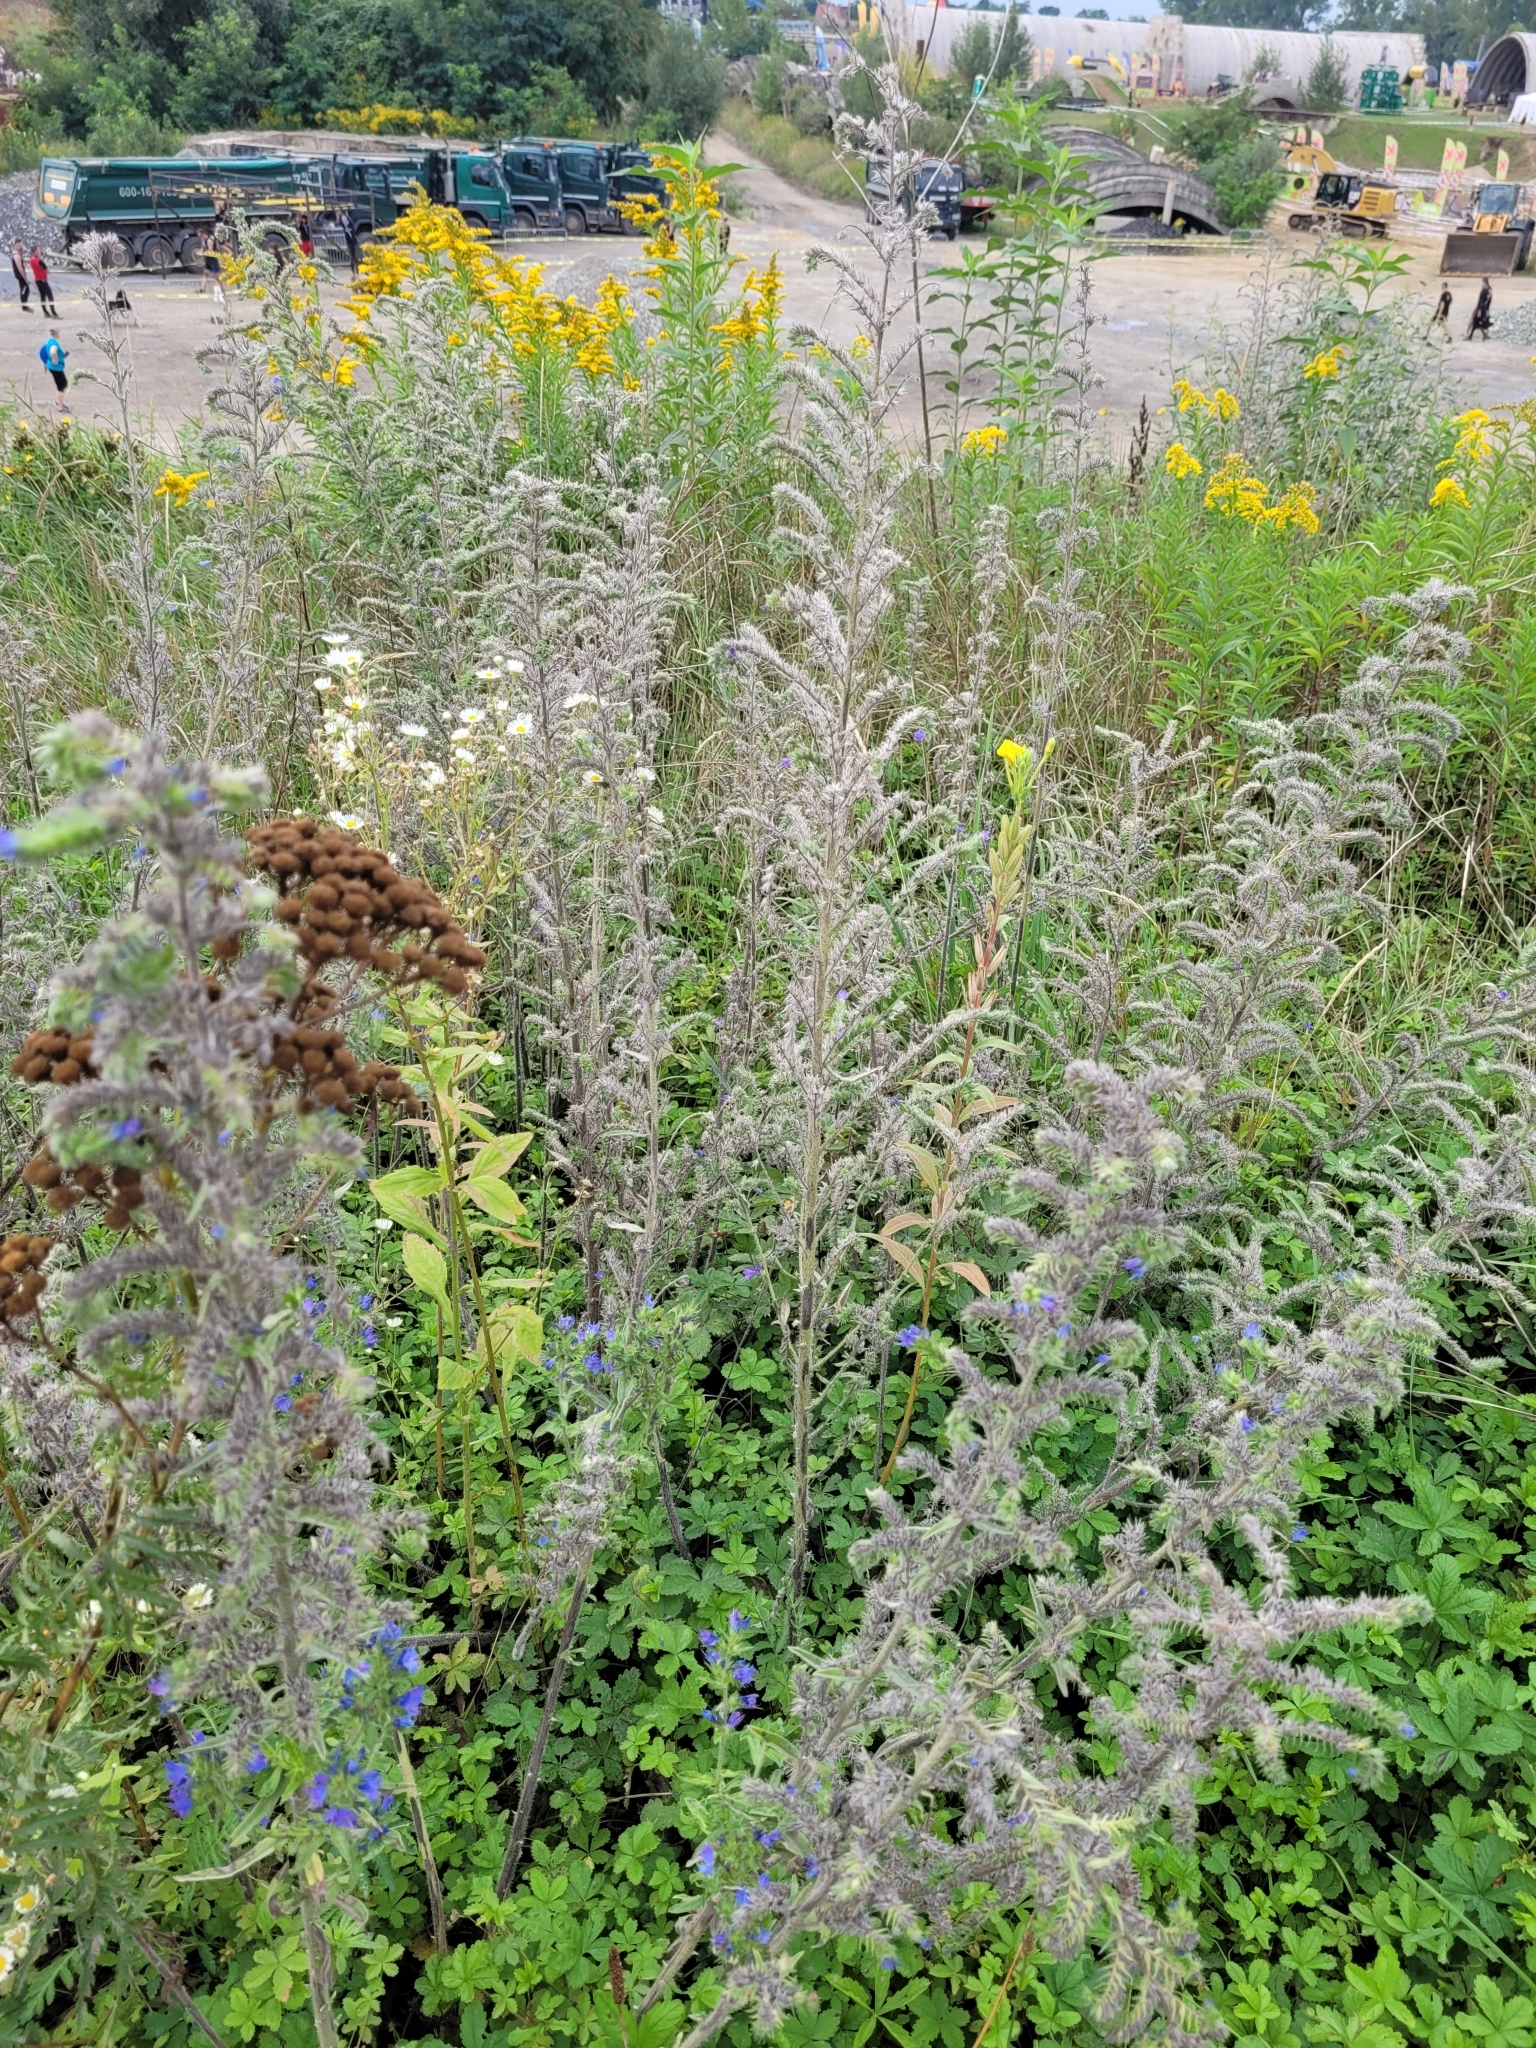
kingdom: Plantae
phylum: Tracheophyta
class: Magnoliopsida
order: Boraginales
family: Boraginaceae
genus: Echium
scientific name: Echium vulgare
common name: Common viper's bugloss
